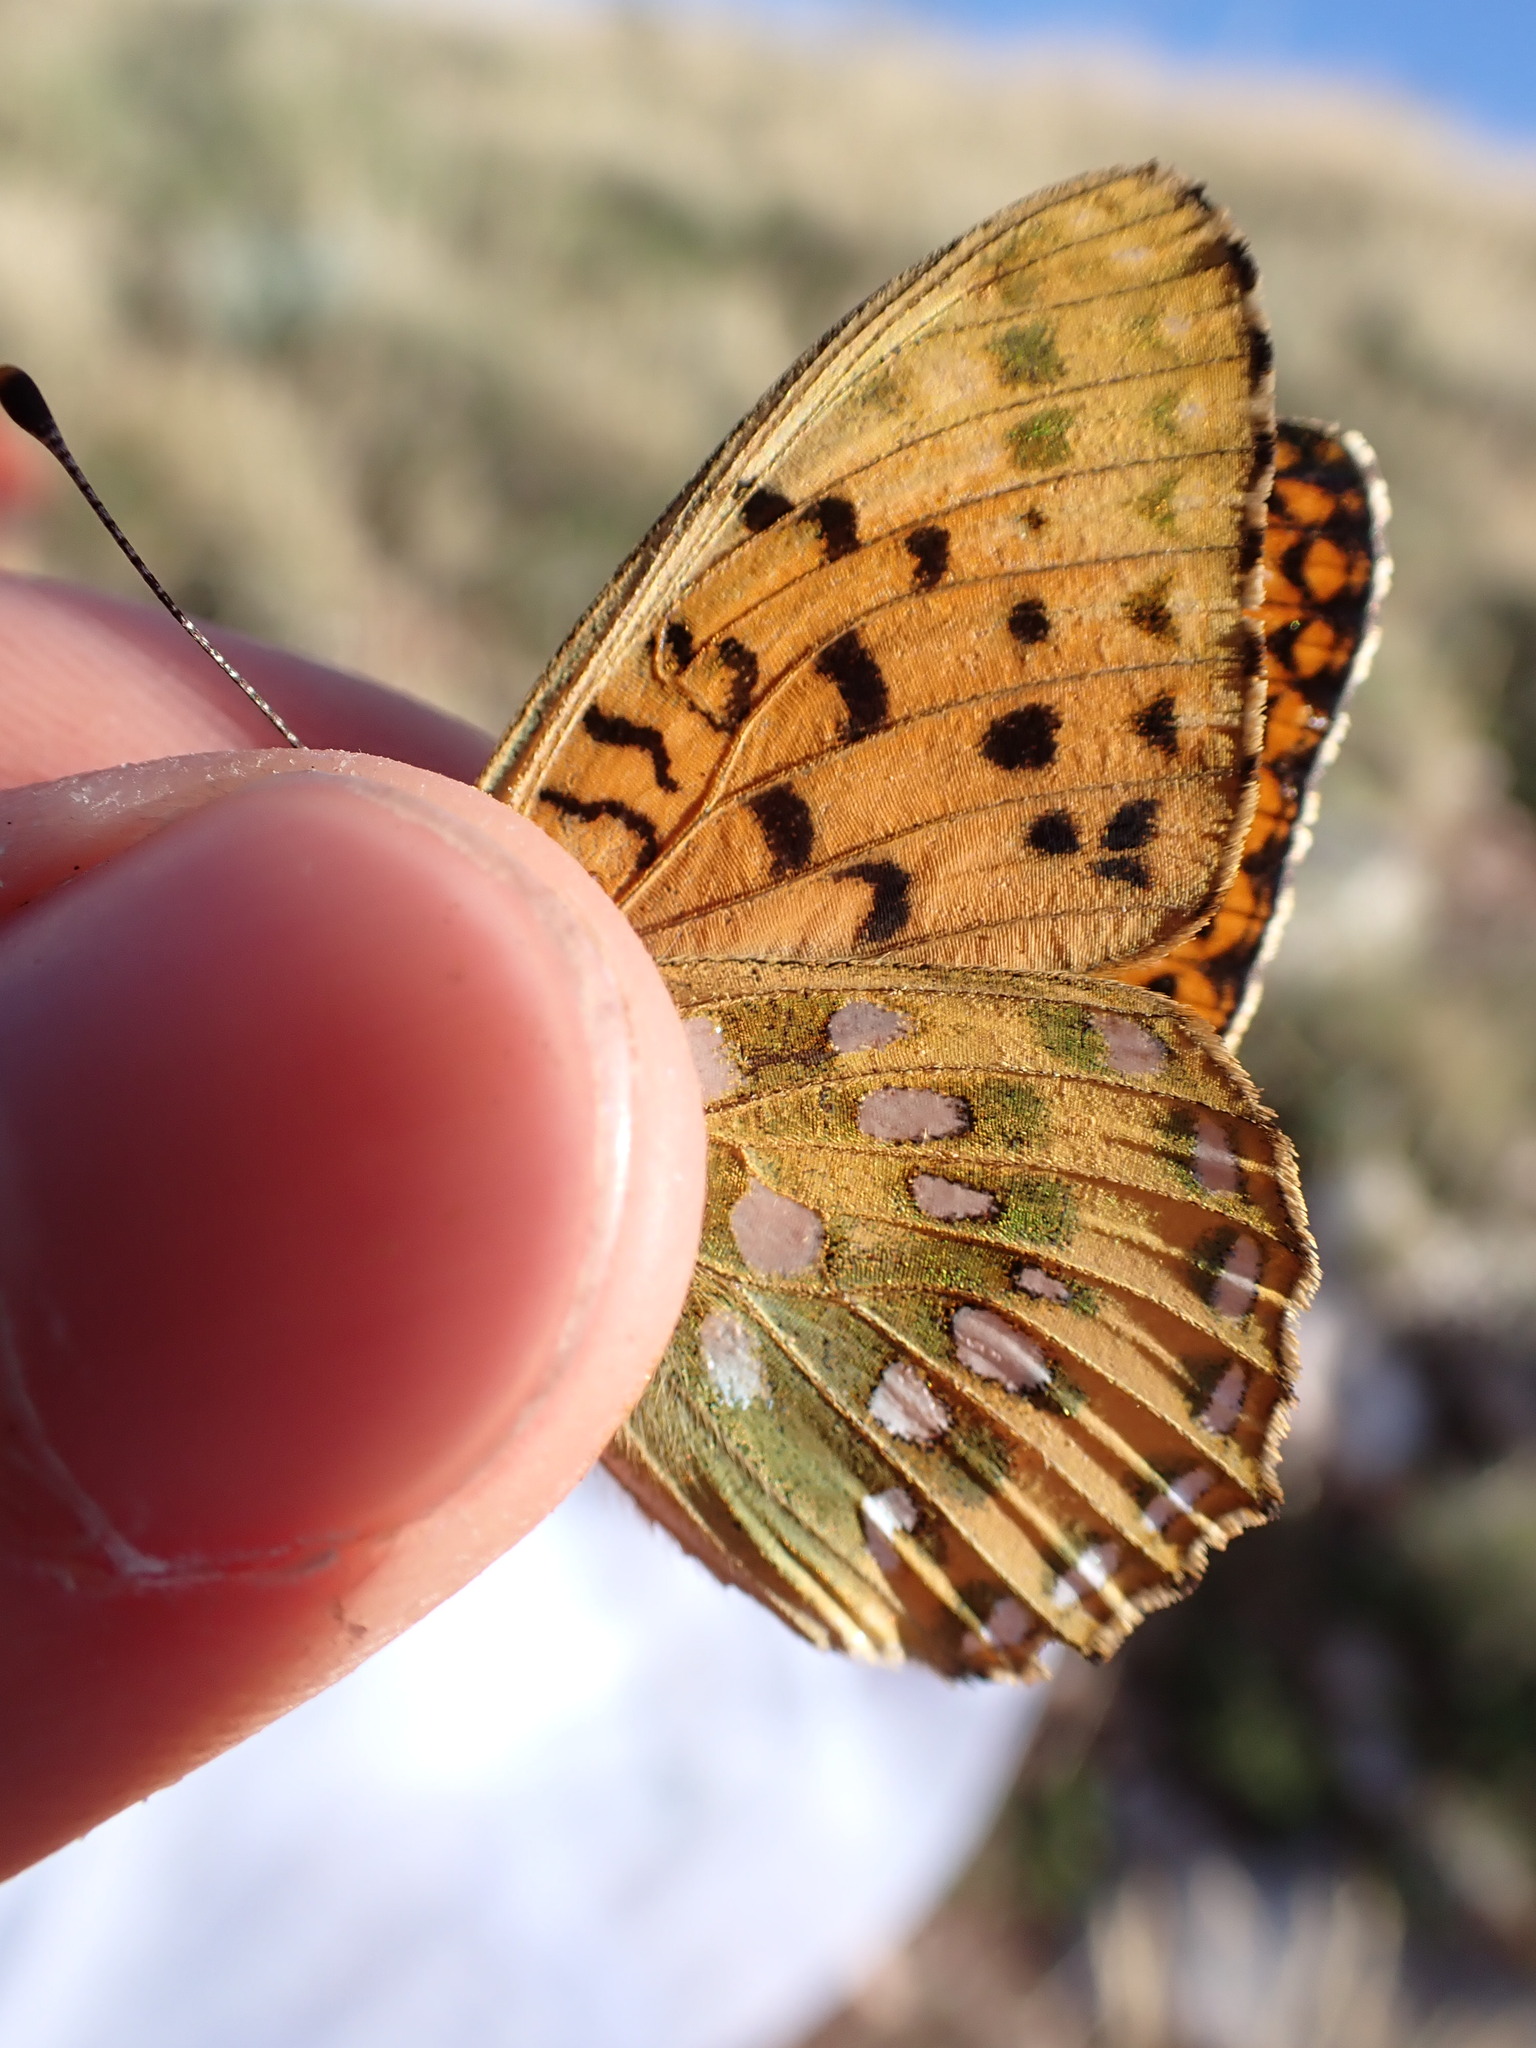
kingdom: Animalia
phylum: Arthropoda
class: Insecta
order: Lepidoptera
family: Nymphalidae
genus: Speyeria
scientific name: Speyeria aglaja
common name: Dark green fritillary
